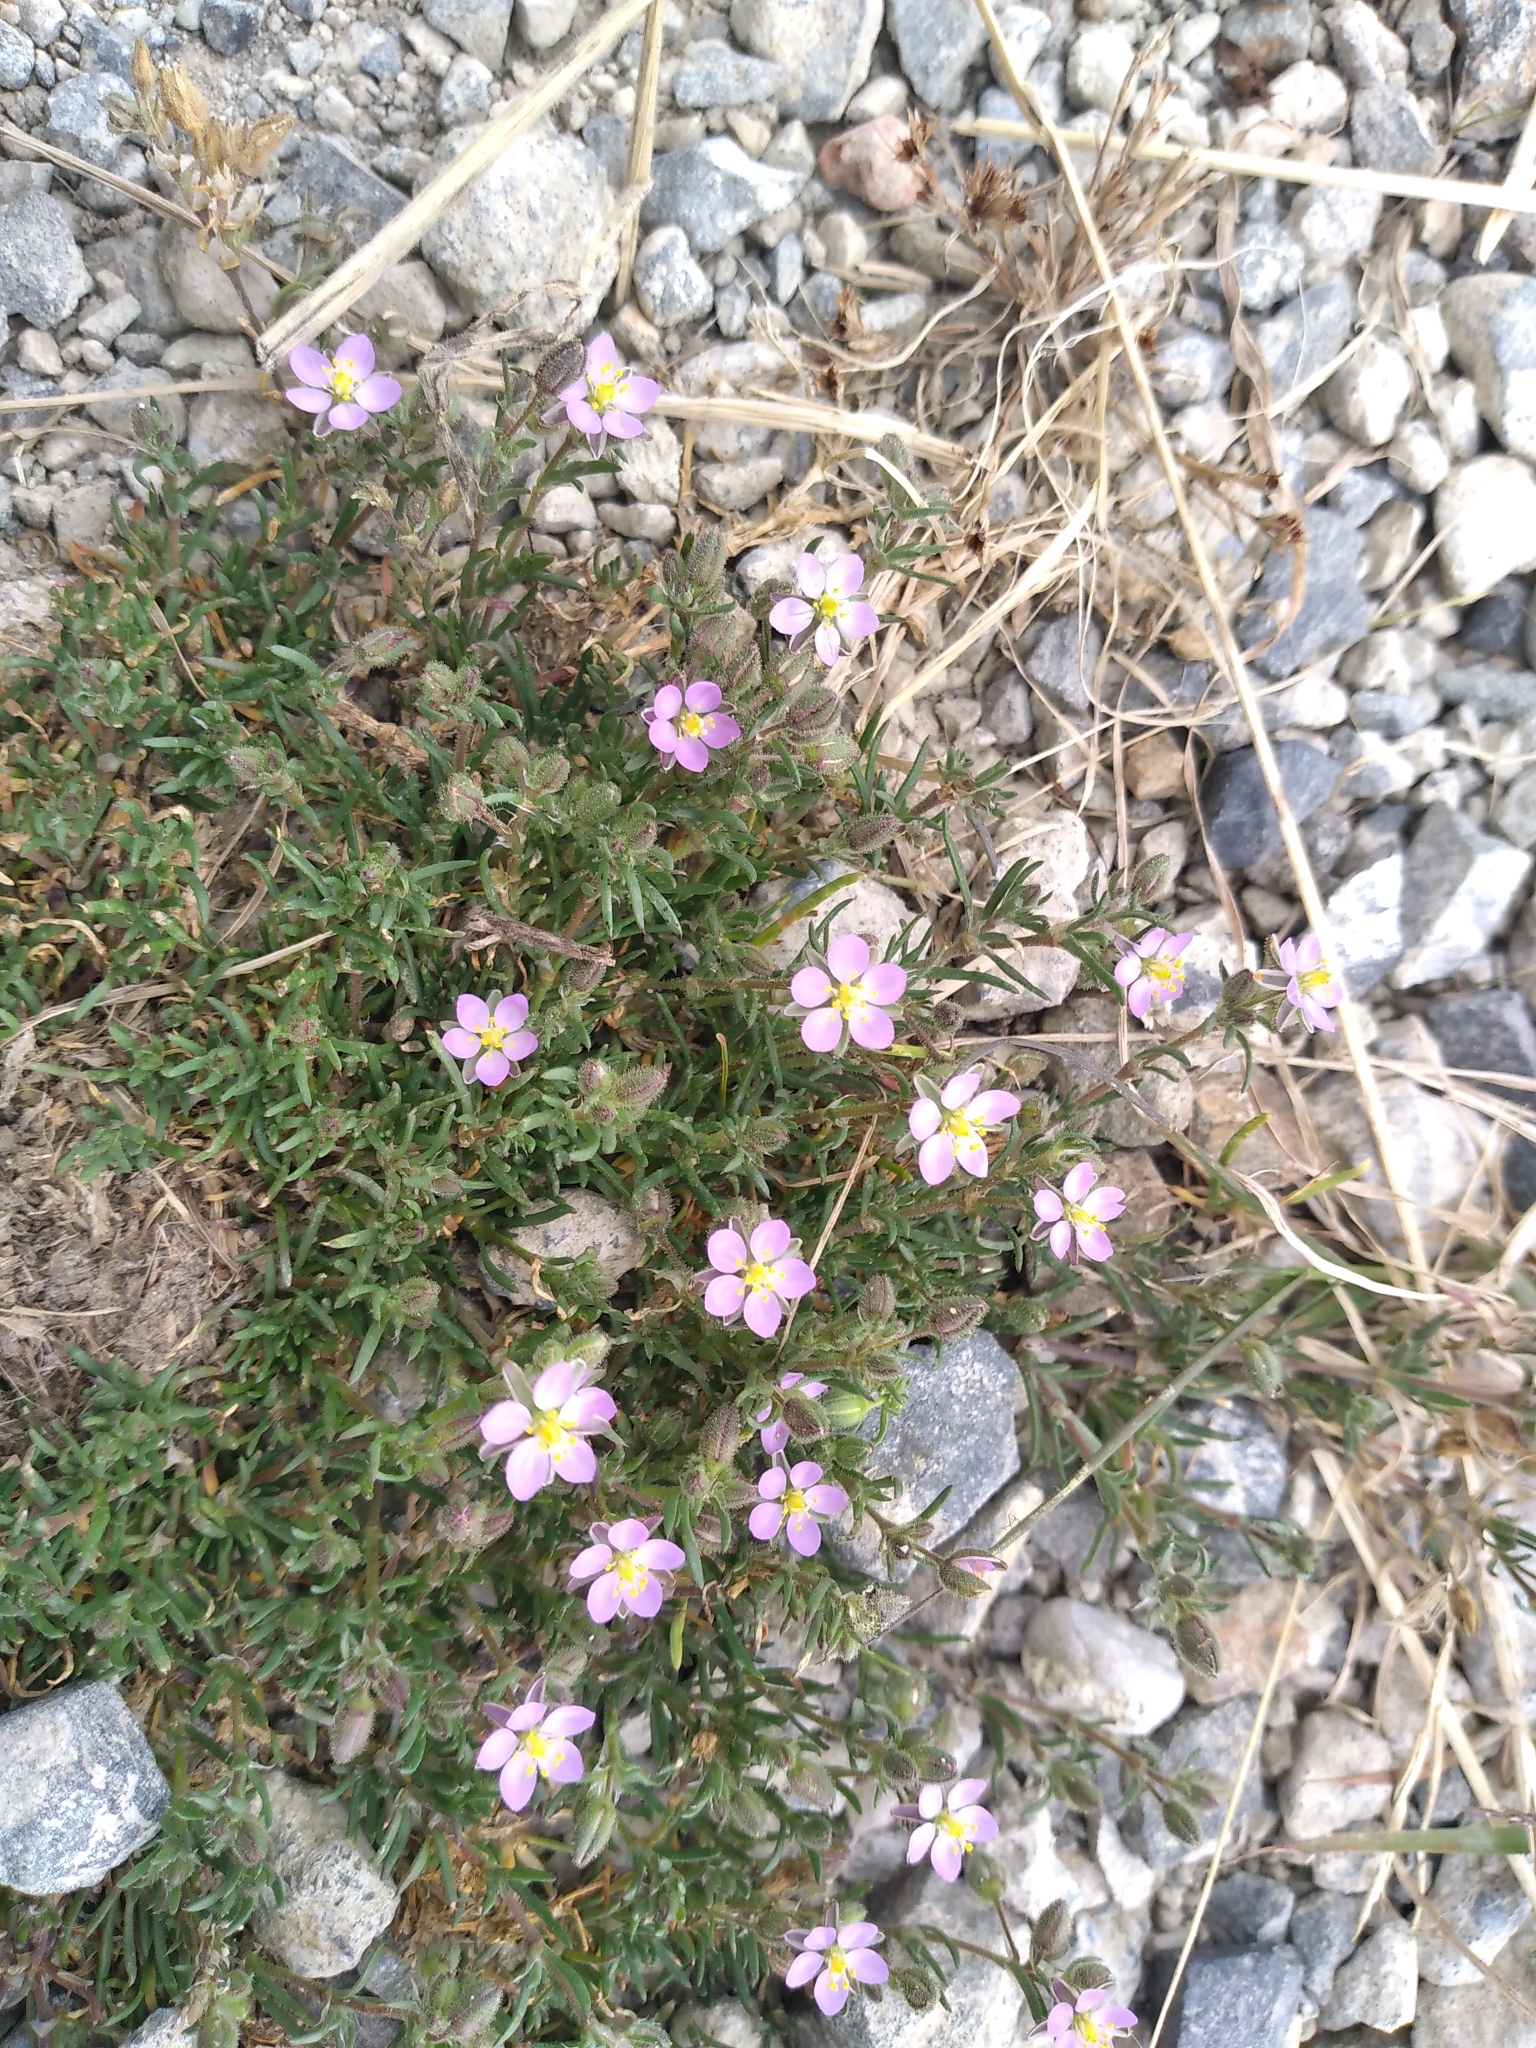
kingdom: Plantae
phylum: Tracheophyta
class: Magnoliopsida
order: Caryophyllales
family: Caryophyllaceae
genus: Spergularia
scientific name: Spergularia rubra
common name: Red sand-spurrey
